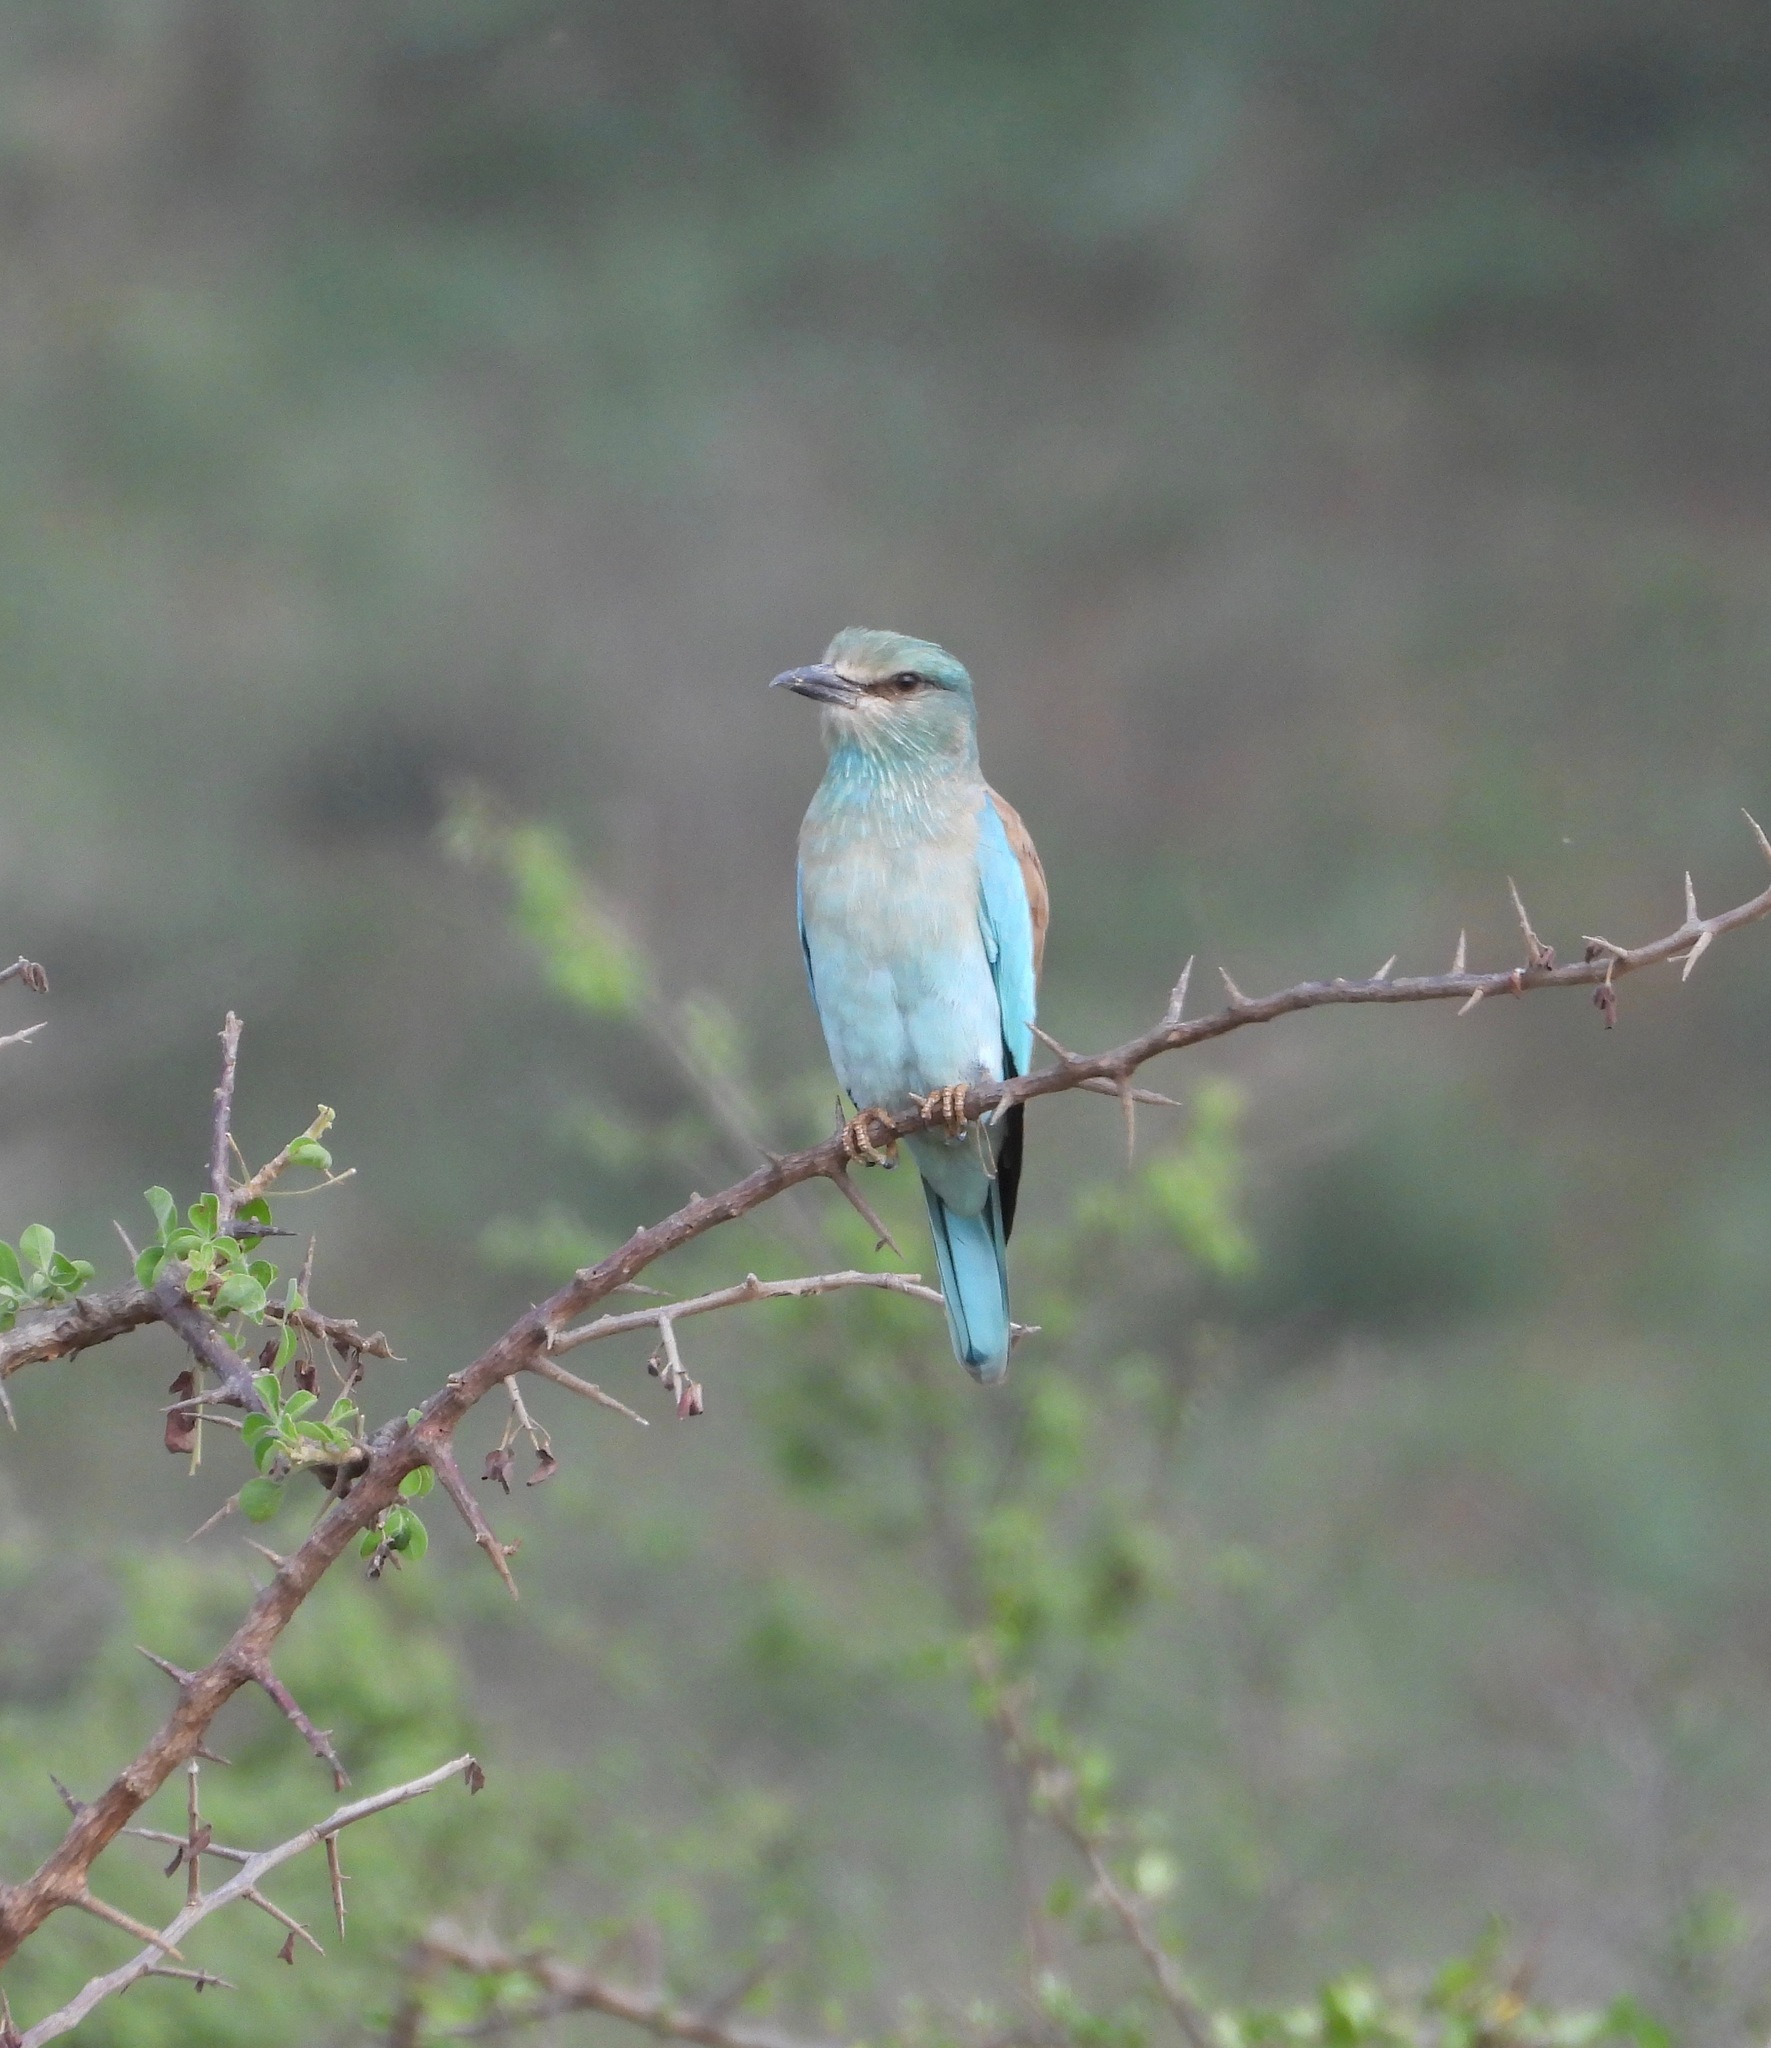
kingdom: Animalia
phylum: Chordata
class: Aves
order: Coraciiformes
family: Coraciidae
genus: Coracias
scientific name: Coracias garrulus
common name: European roller
